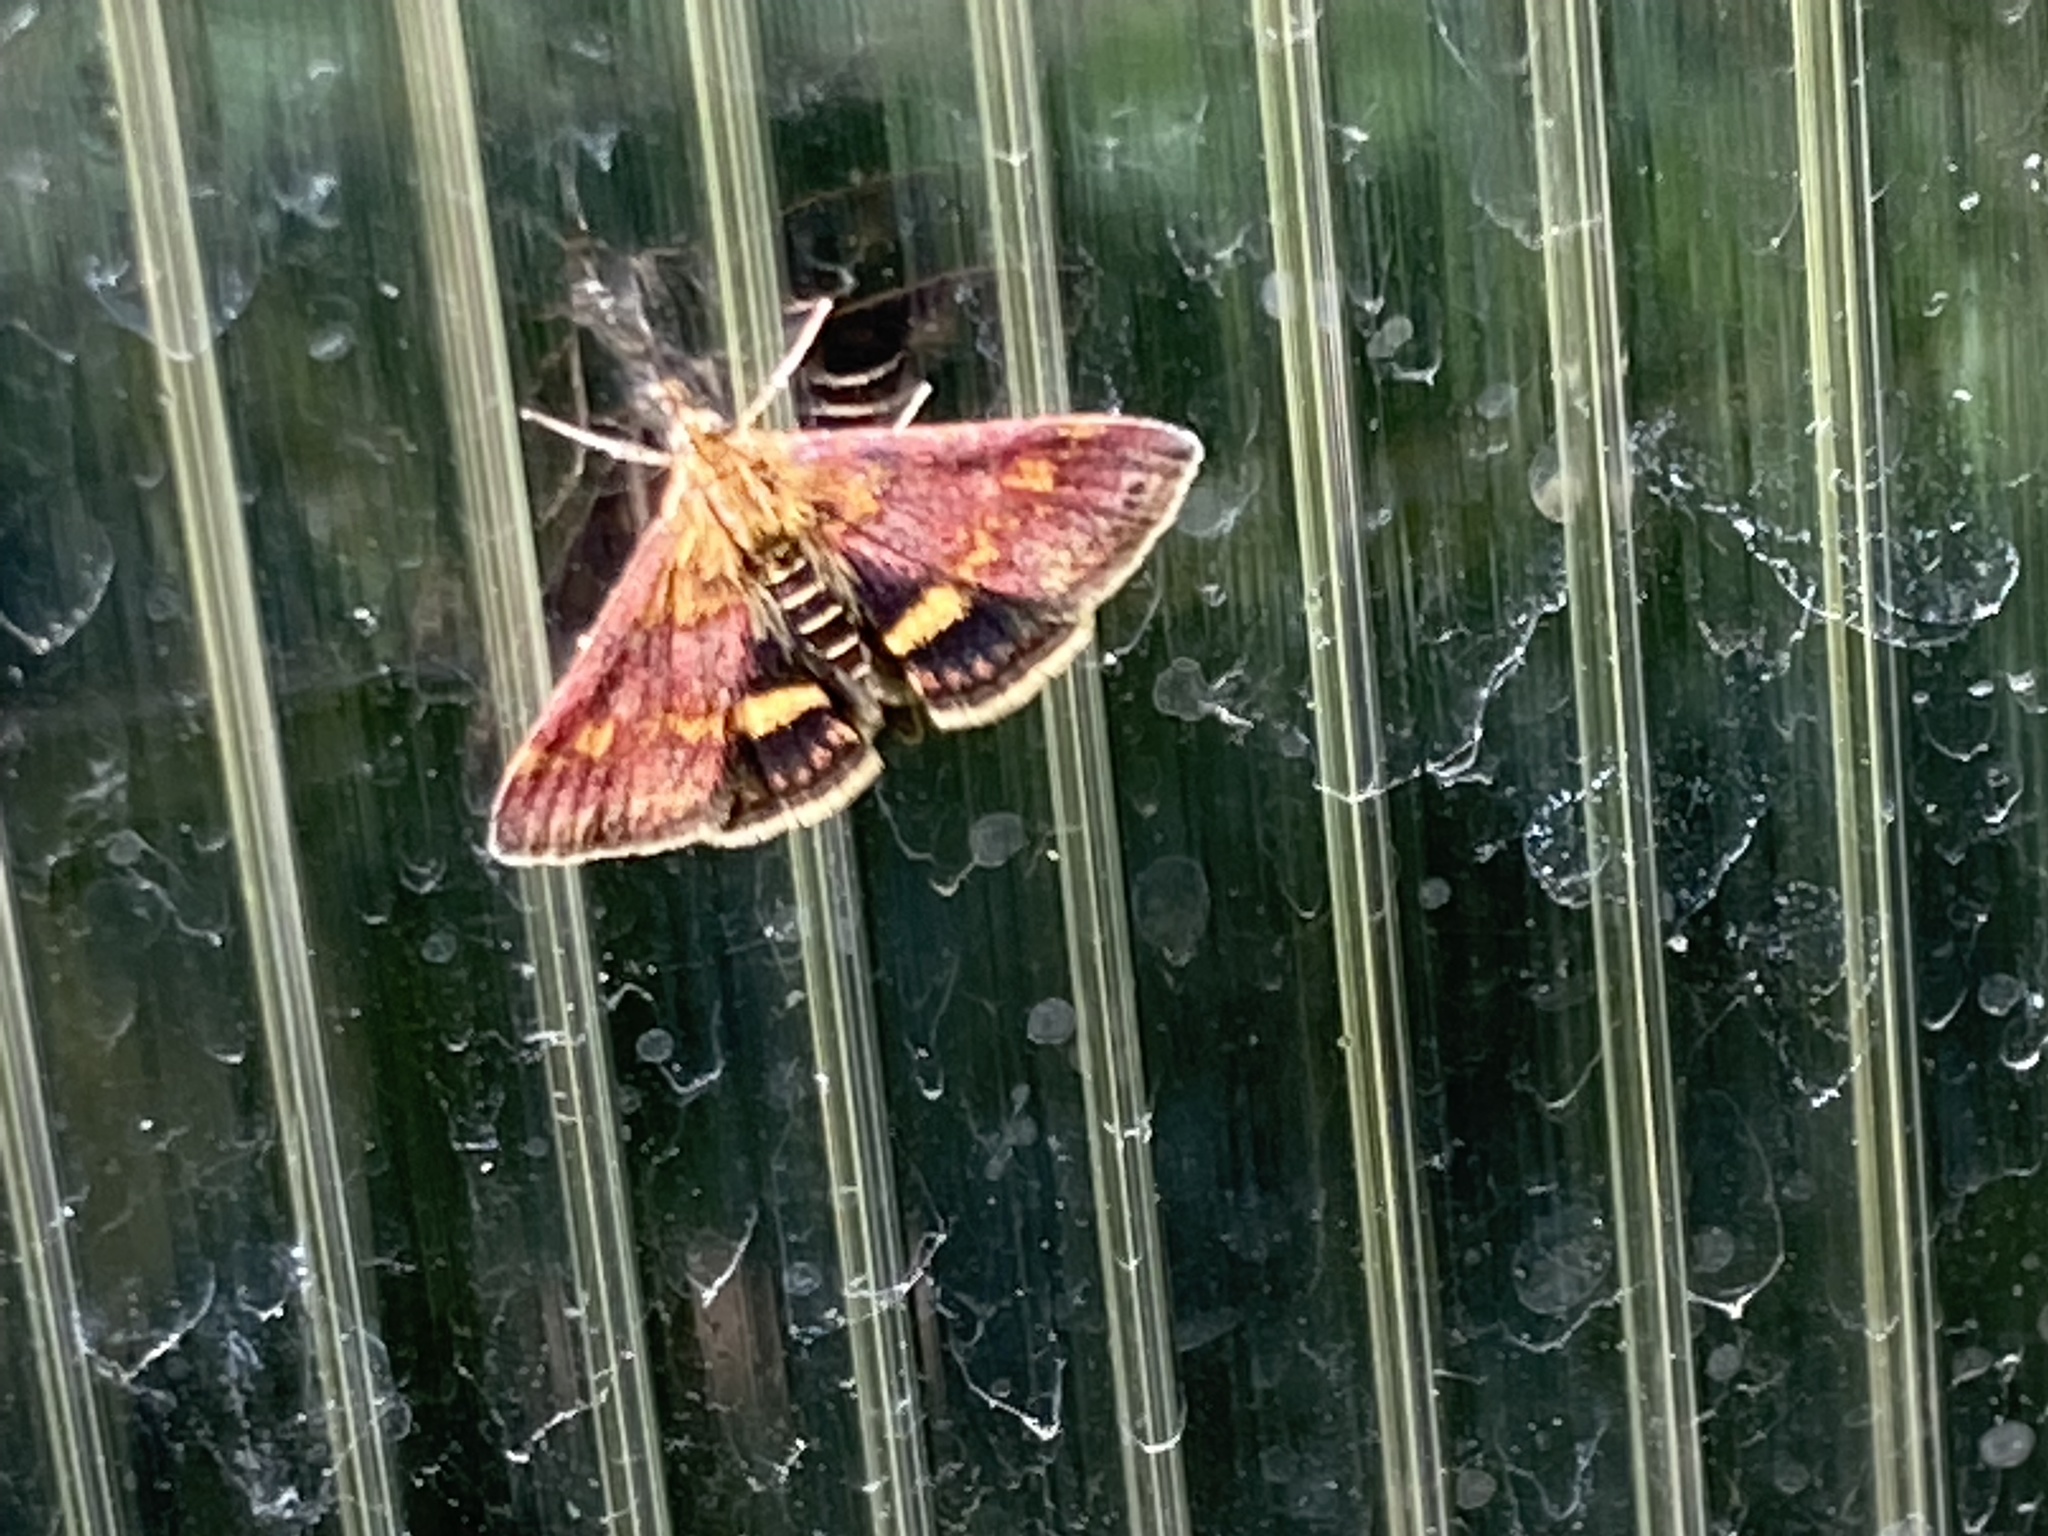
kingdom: Animalia
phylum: Arthropoda
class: Insecta
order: Lepidoptera
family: Crambidae
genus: Pyrausta
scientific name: Pyrausta aurata
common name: Small purple & gold
